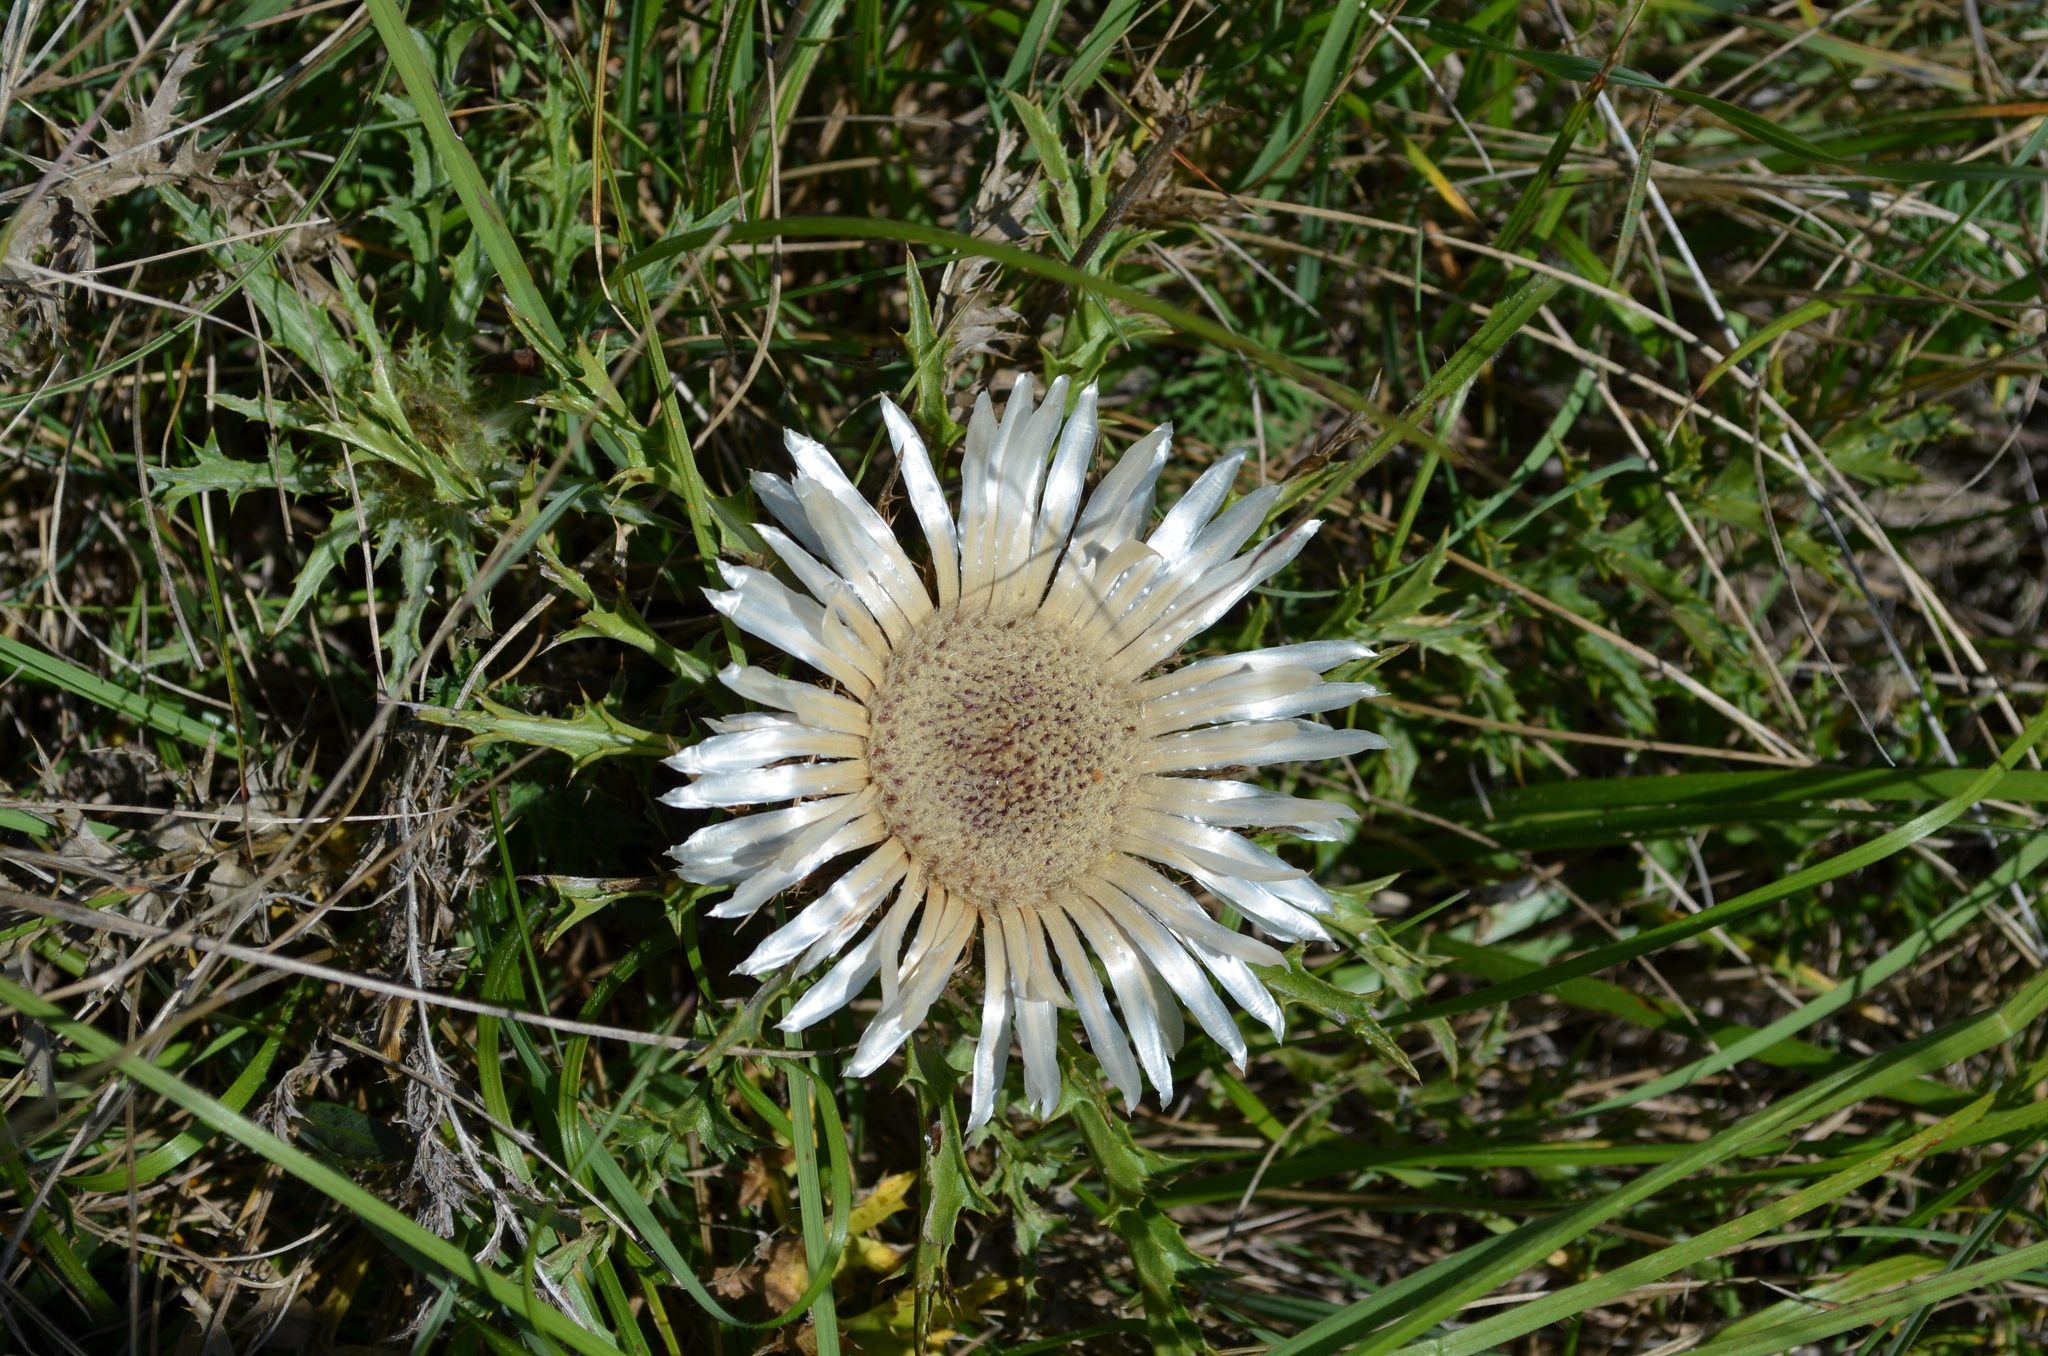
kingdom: Plantae
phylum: Tracheophyta
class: Magnoliopsida
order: Asterales
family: Asteraceae
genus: Carlina
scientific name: Carlina acaulis
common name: Stemless carline thistle
